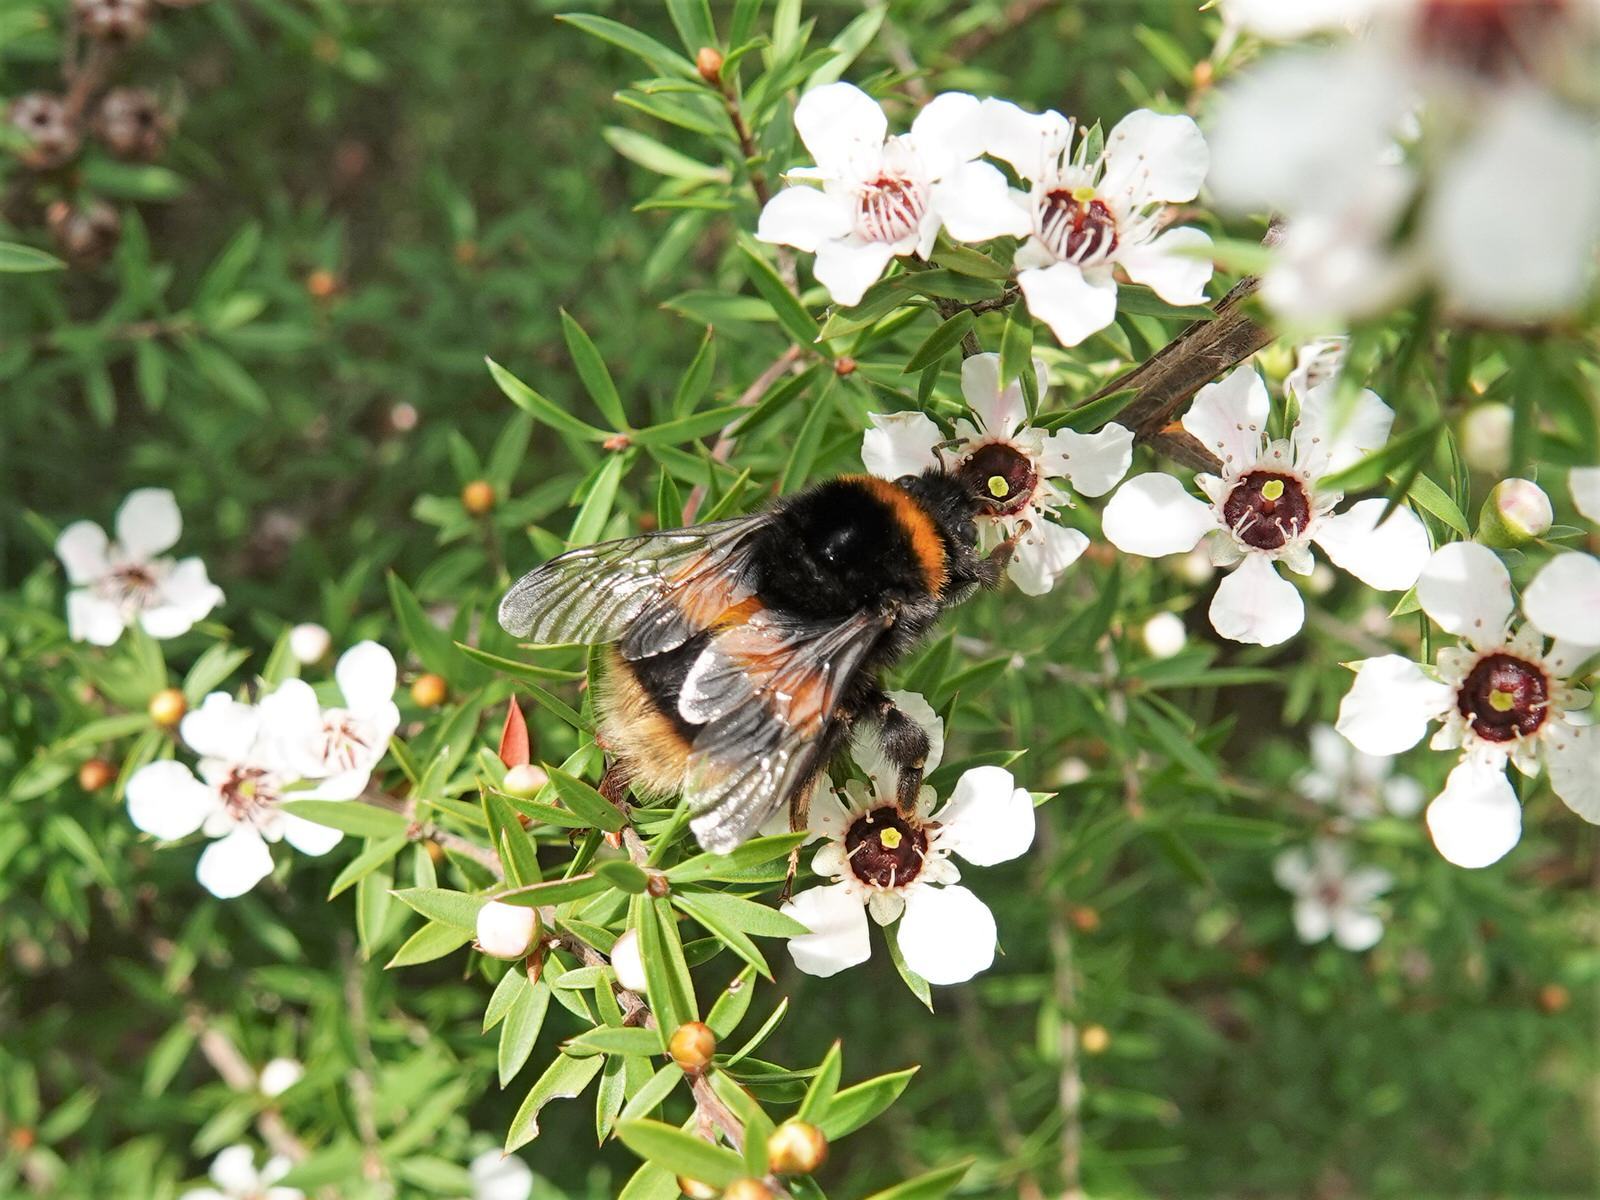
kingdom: Animalia
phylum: Arthropoda
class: Insecta
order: Hymenoptera
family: Apidae
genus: Bombus
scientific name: Bombus terrestris
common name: Buff-tailed bumblebee
